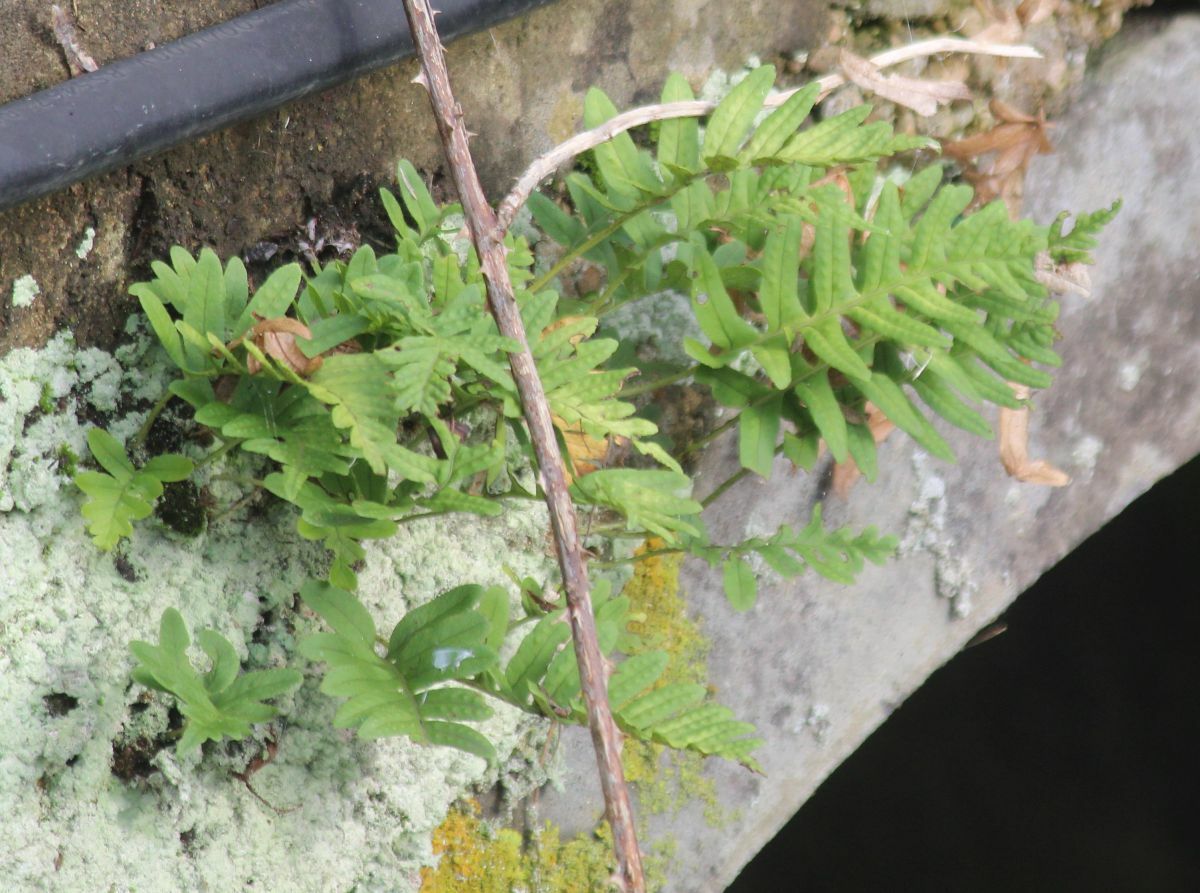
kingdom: Plantae
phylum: Tracheophyta
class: Polypodiopsida
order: Polypodiales
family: Polypodiaceae
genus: Polypodium
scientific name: Polypodium
